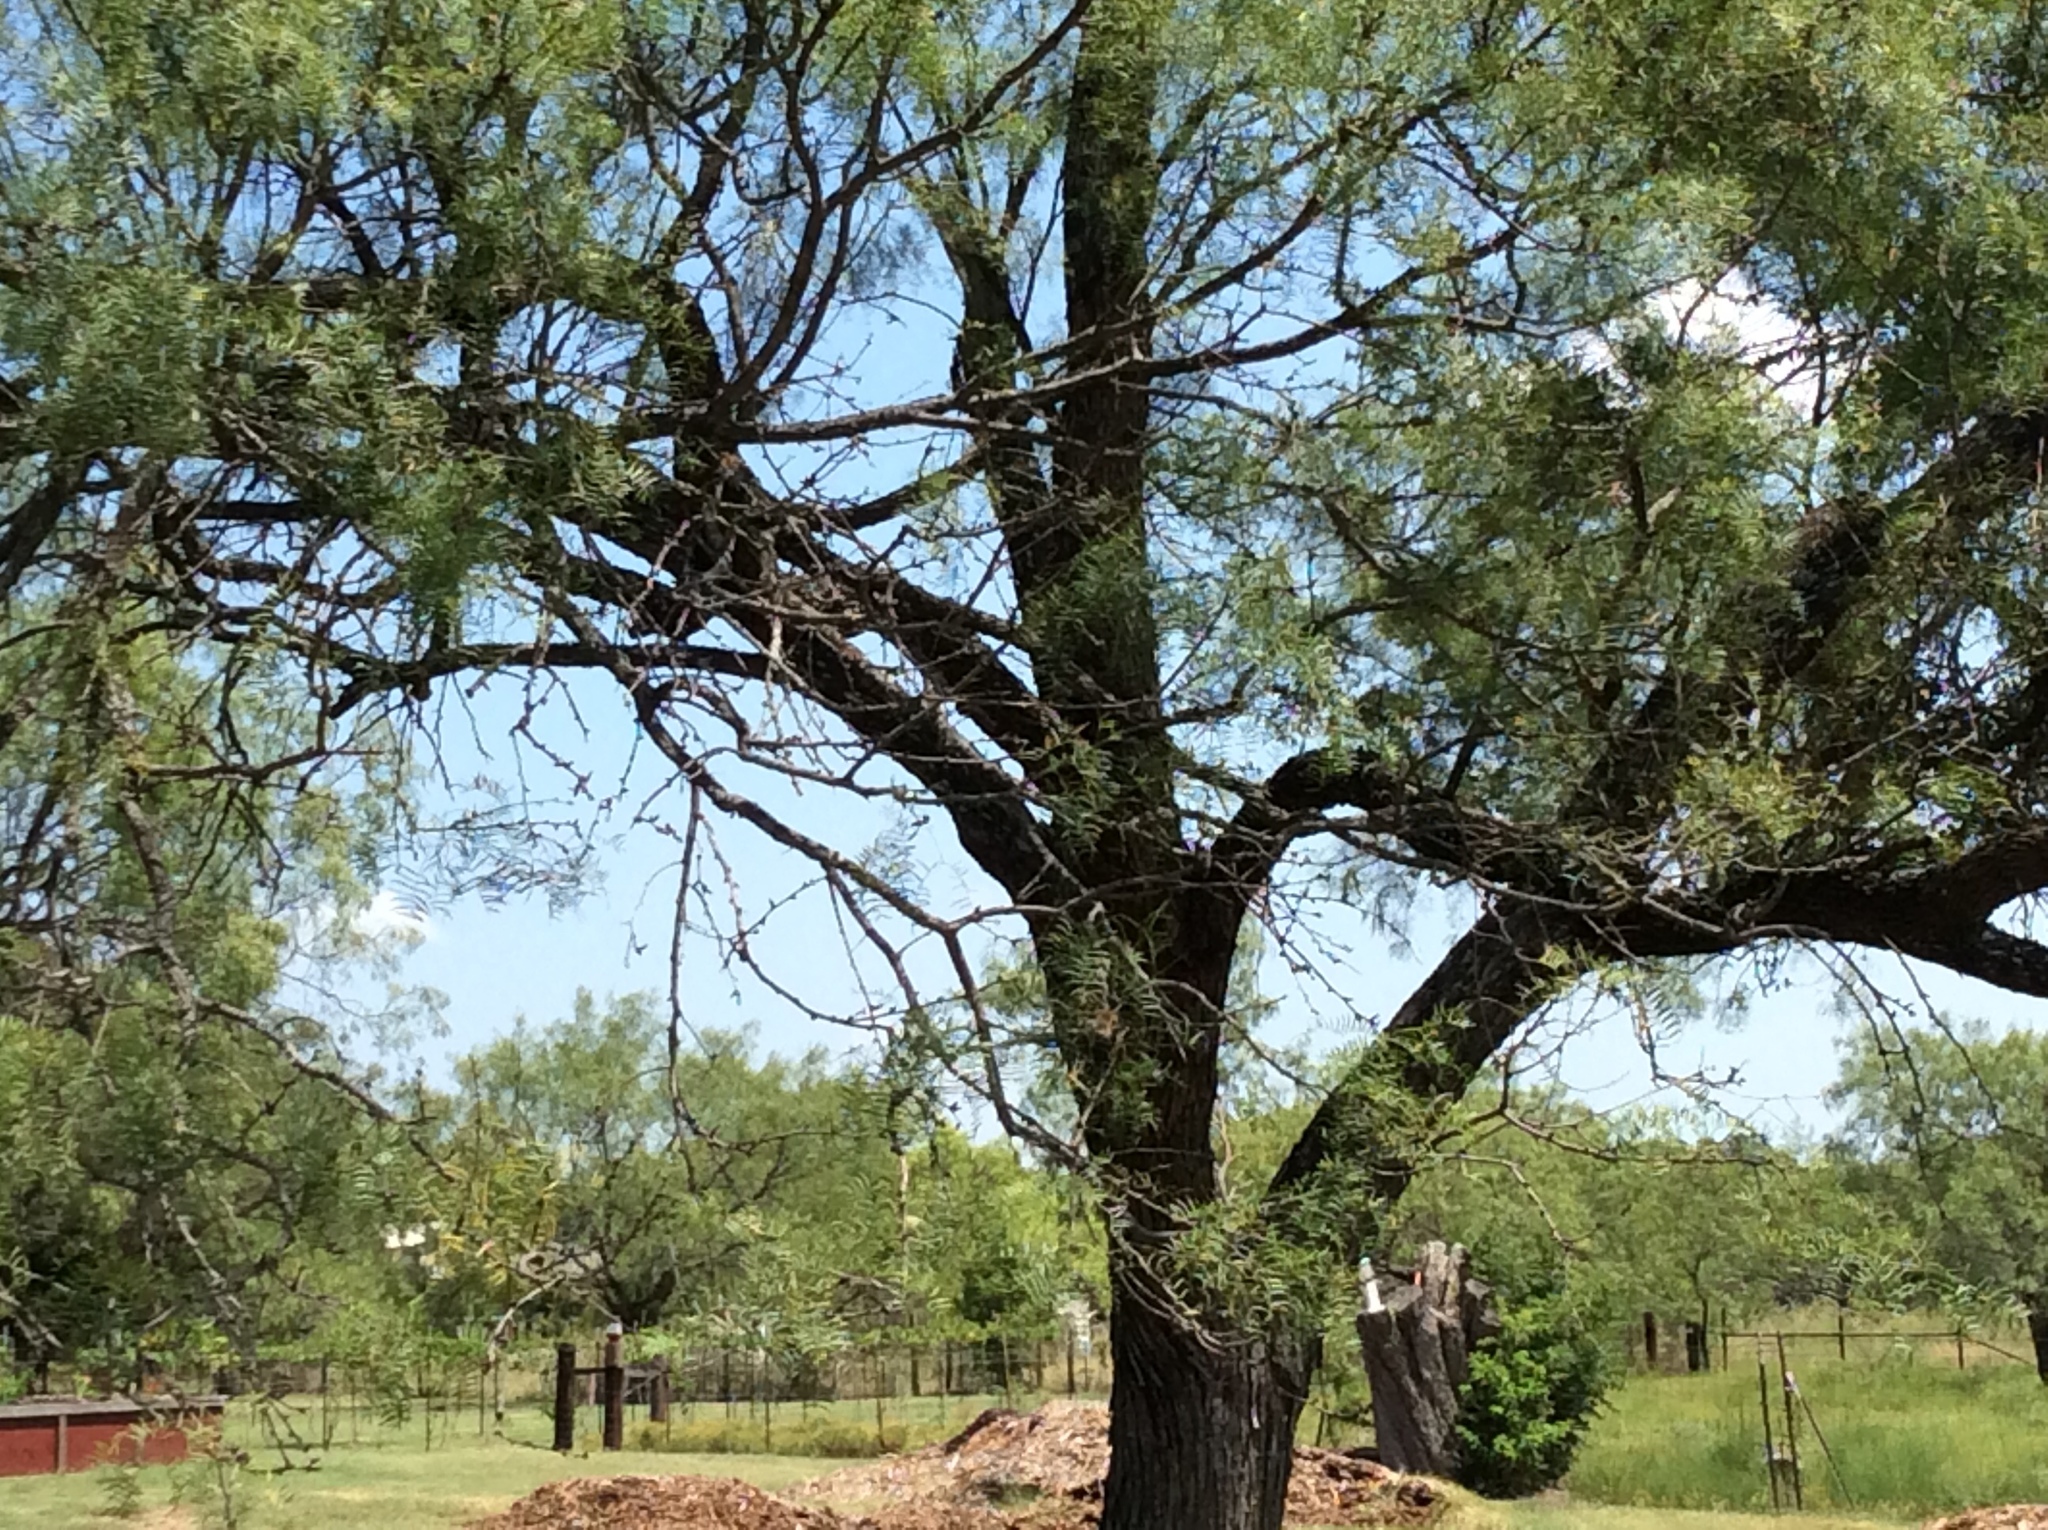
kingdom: Plantae
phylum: Tracheophyta
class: Magnoliopsida
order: Fabales
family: Fabaceae
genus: Prosopis
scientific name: Prosopis glandulosa
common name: Honey mesquite
